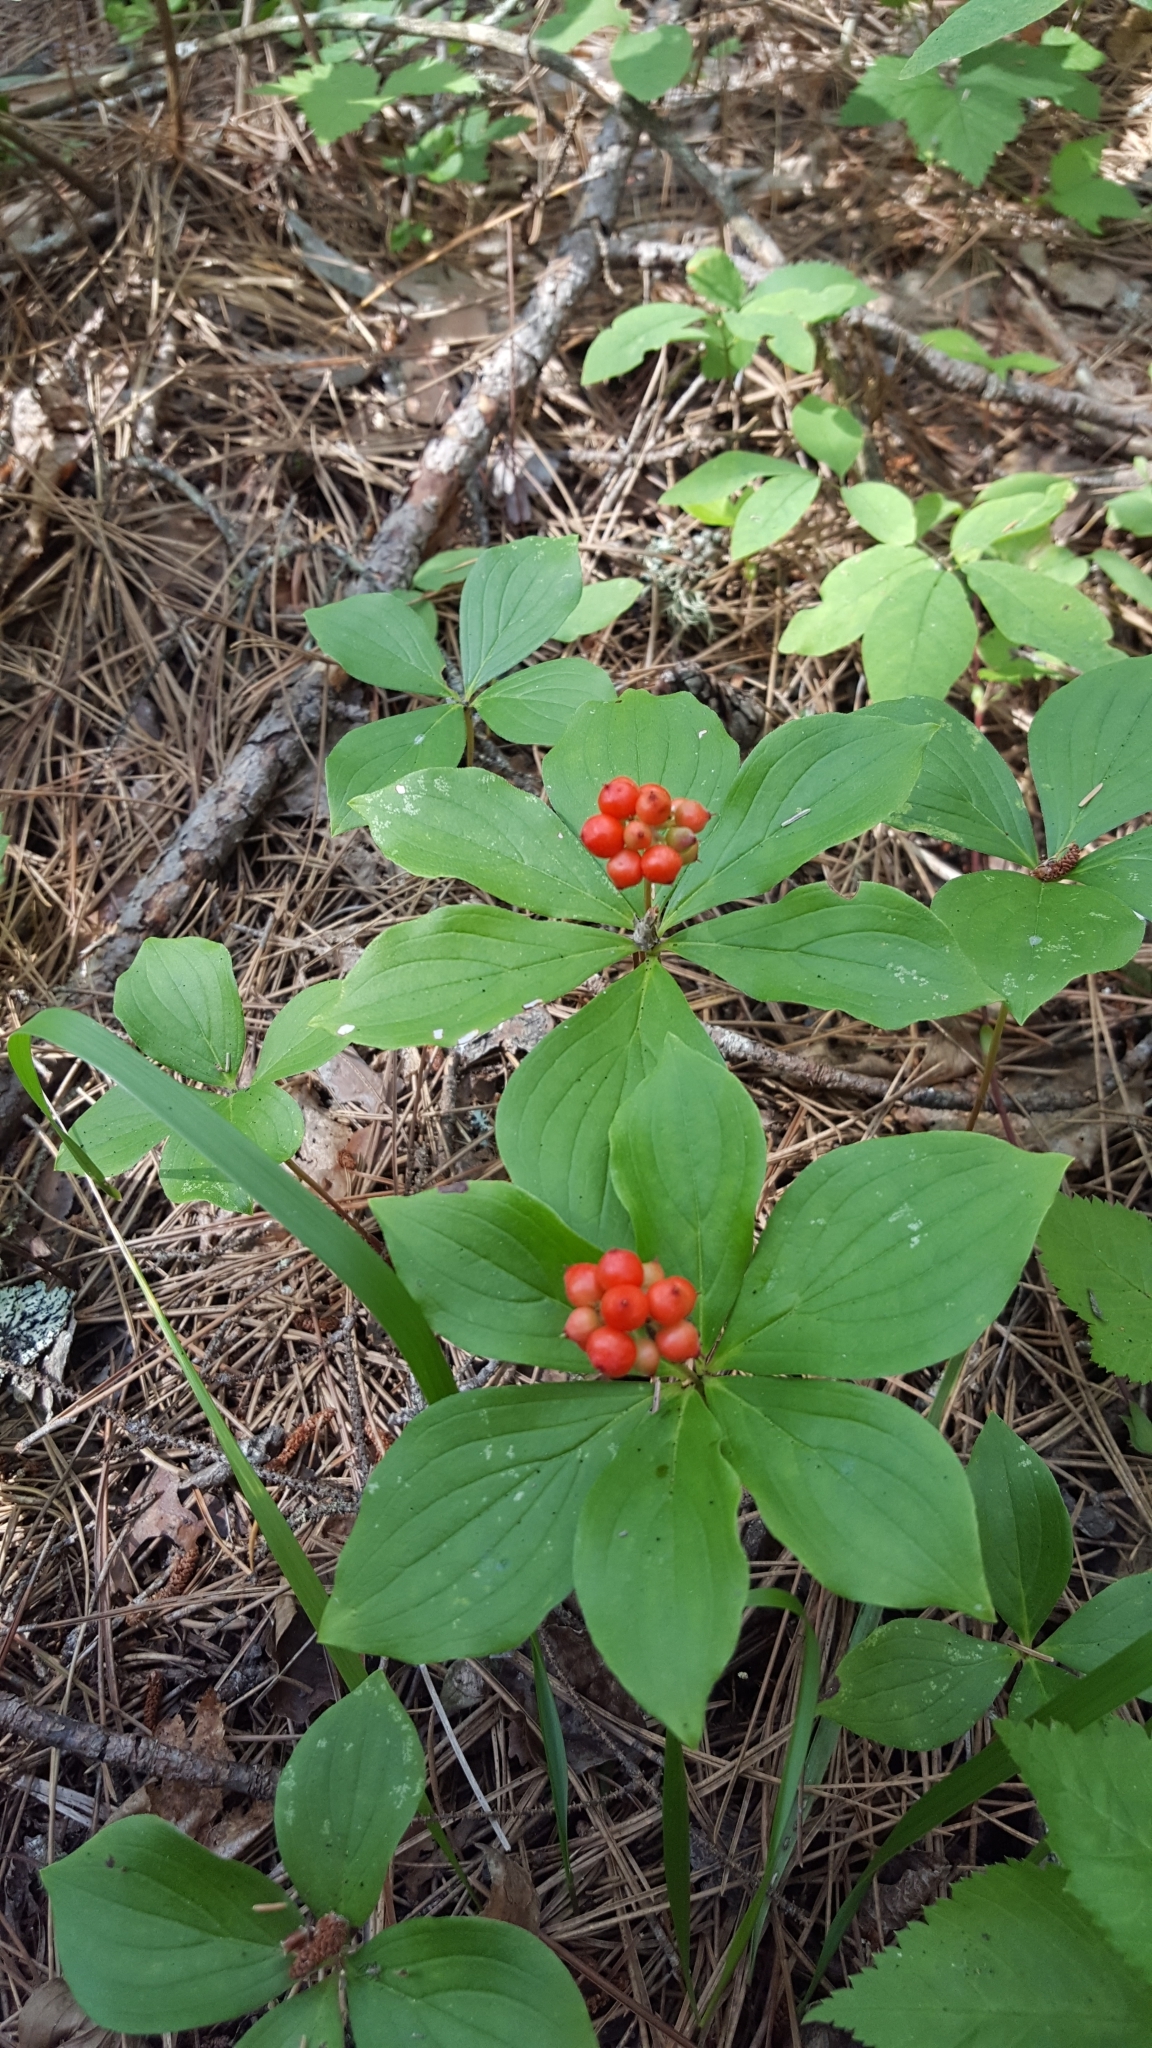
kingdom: Plantae
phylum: Tracheophyta
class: Magnoliopsida
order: Cornales
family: Cornaceae
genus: Cornus
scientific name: Cornus canadensis
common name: Creeping dogwood
